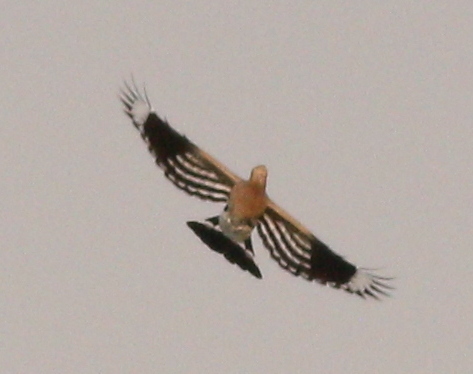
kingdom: Animalia
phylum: Chordata
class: Aves
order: Bucerotiformes
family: Upupidae
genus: Upupa
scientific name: Upupa epops
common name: Eurasian hoopoe
